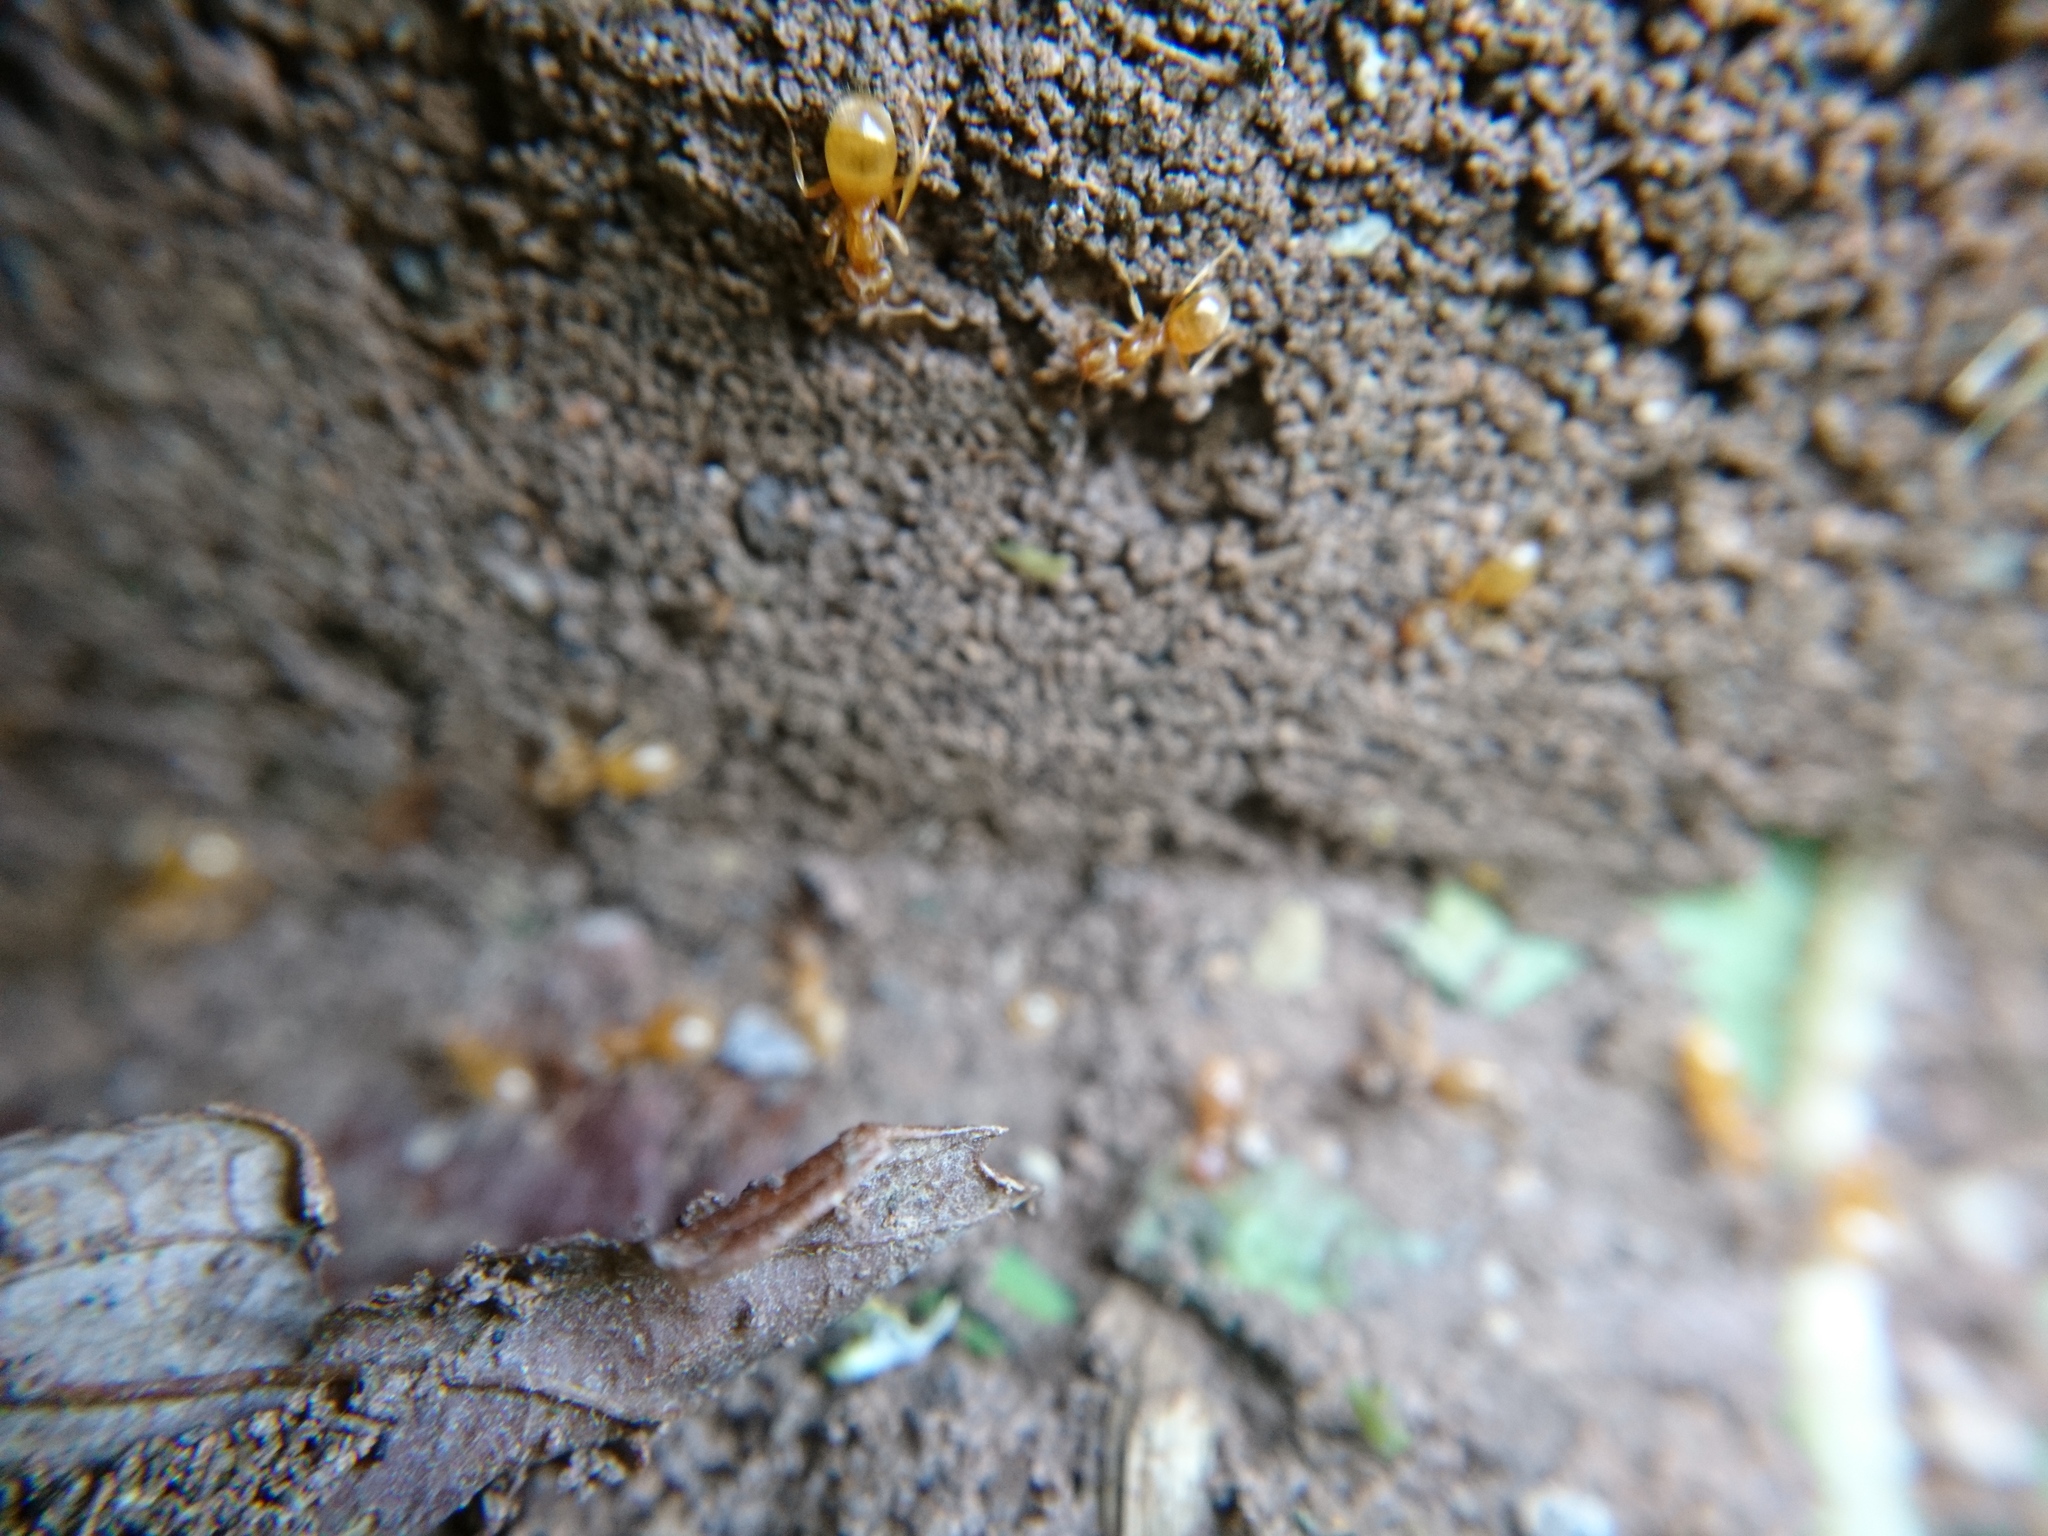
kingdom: Animalia
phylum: Arthropoda
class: Insecta
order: Hymenoptera
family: Formicidae
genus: Lasius
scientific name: Lasius flavus
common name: Blond field ant
